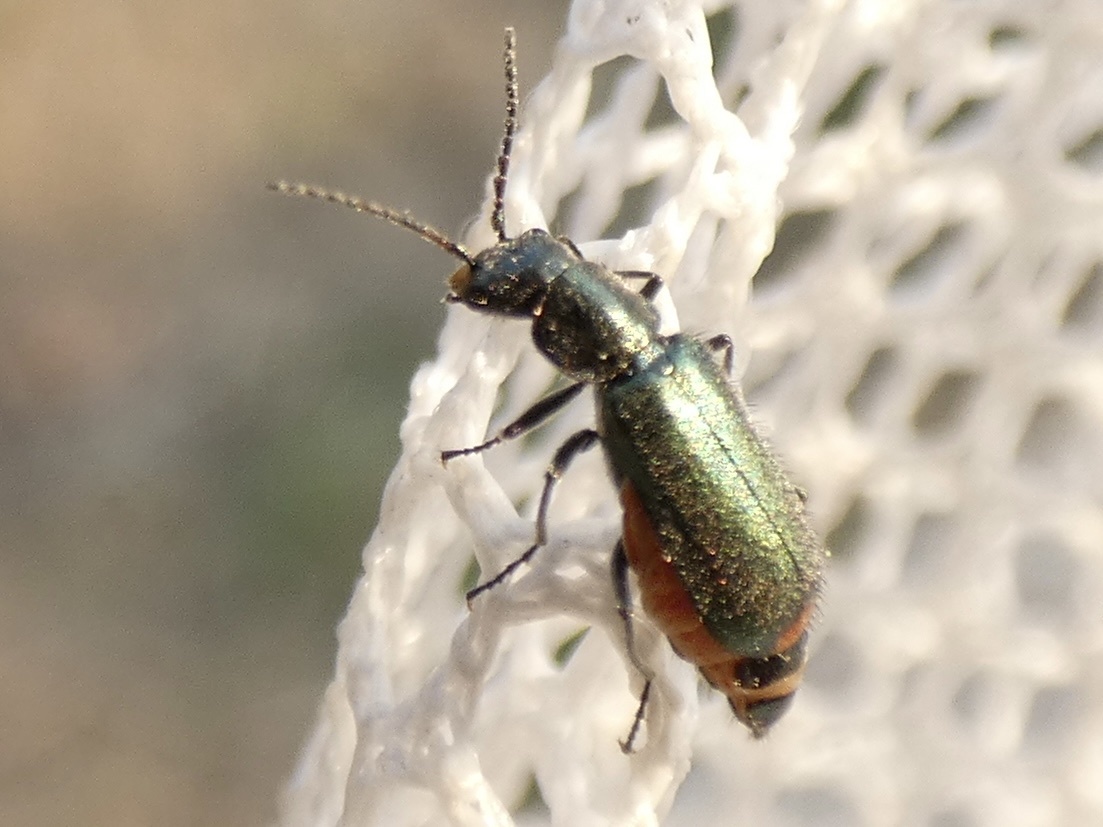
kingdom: Animalia
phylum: Arthropoda
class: Insecta
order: Coleoptera
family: Malachiidae
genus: Cordylepherus
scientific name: Cordylepherus viridis
